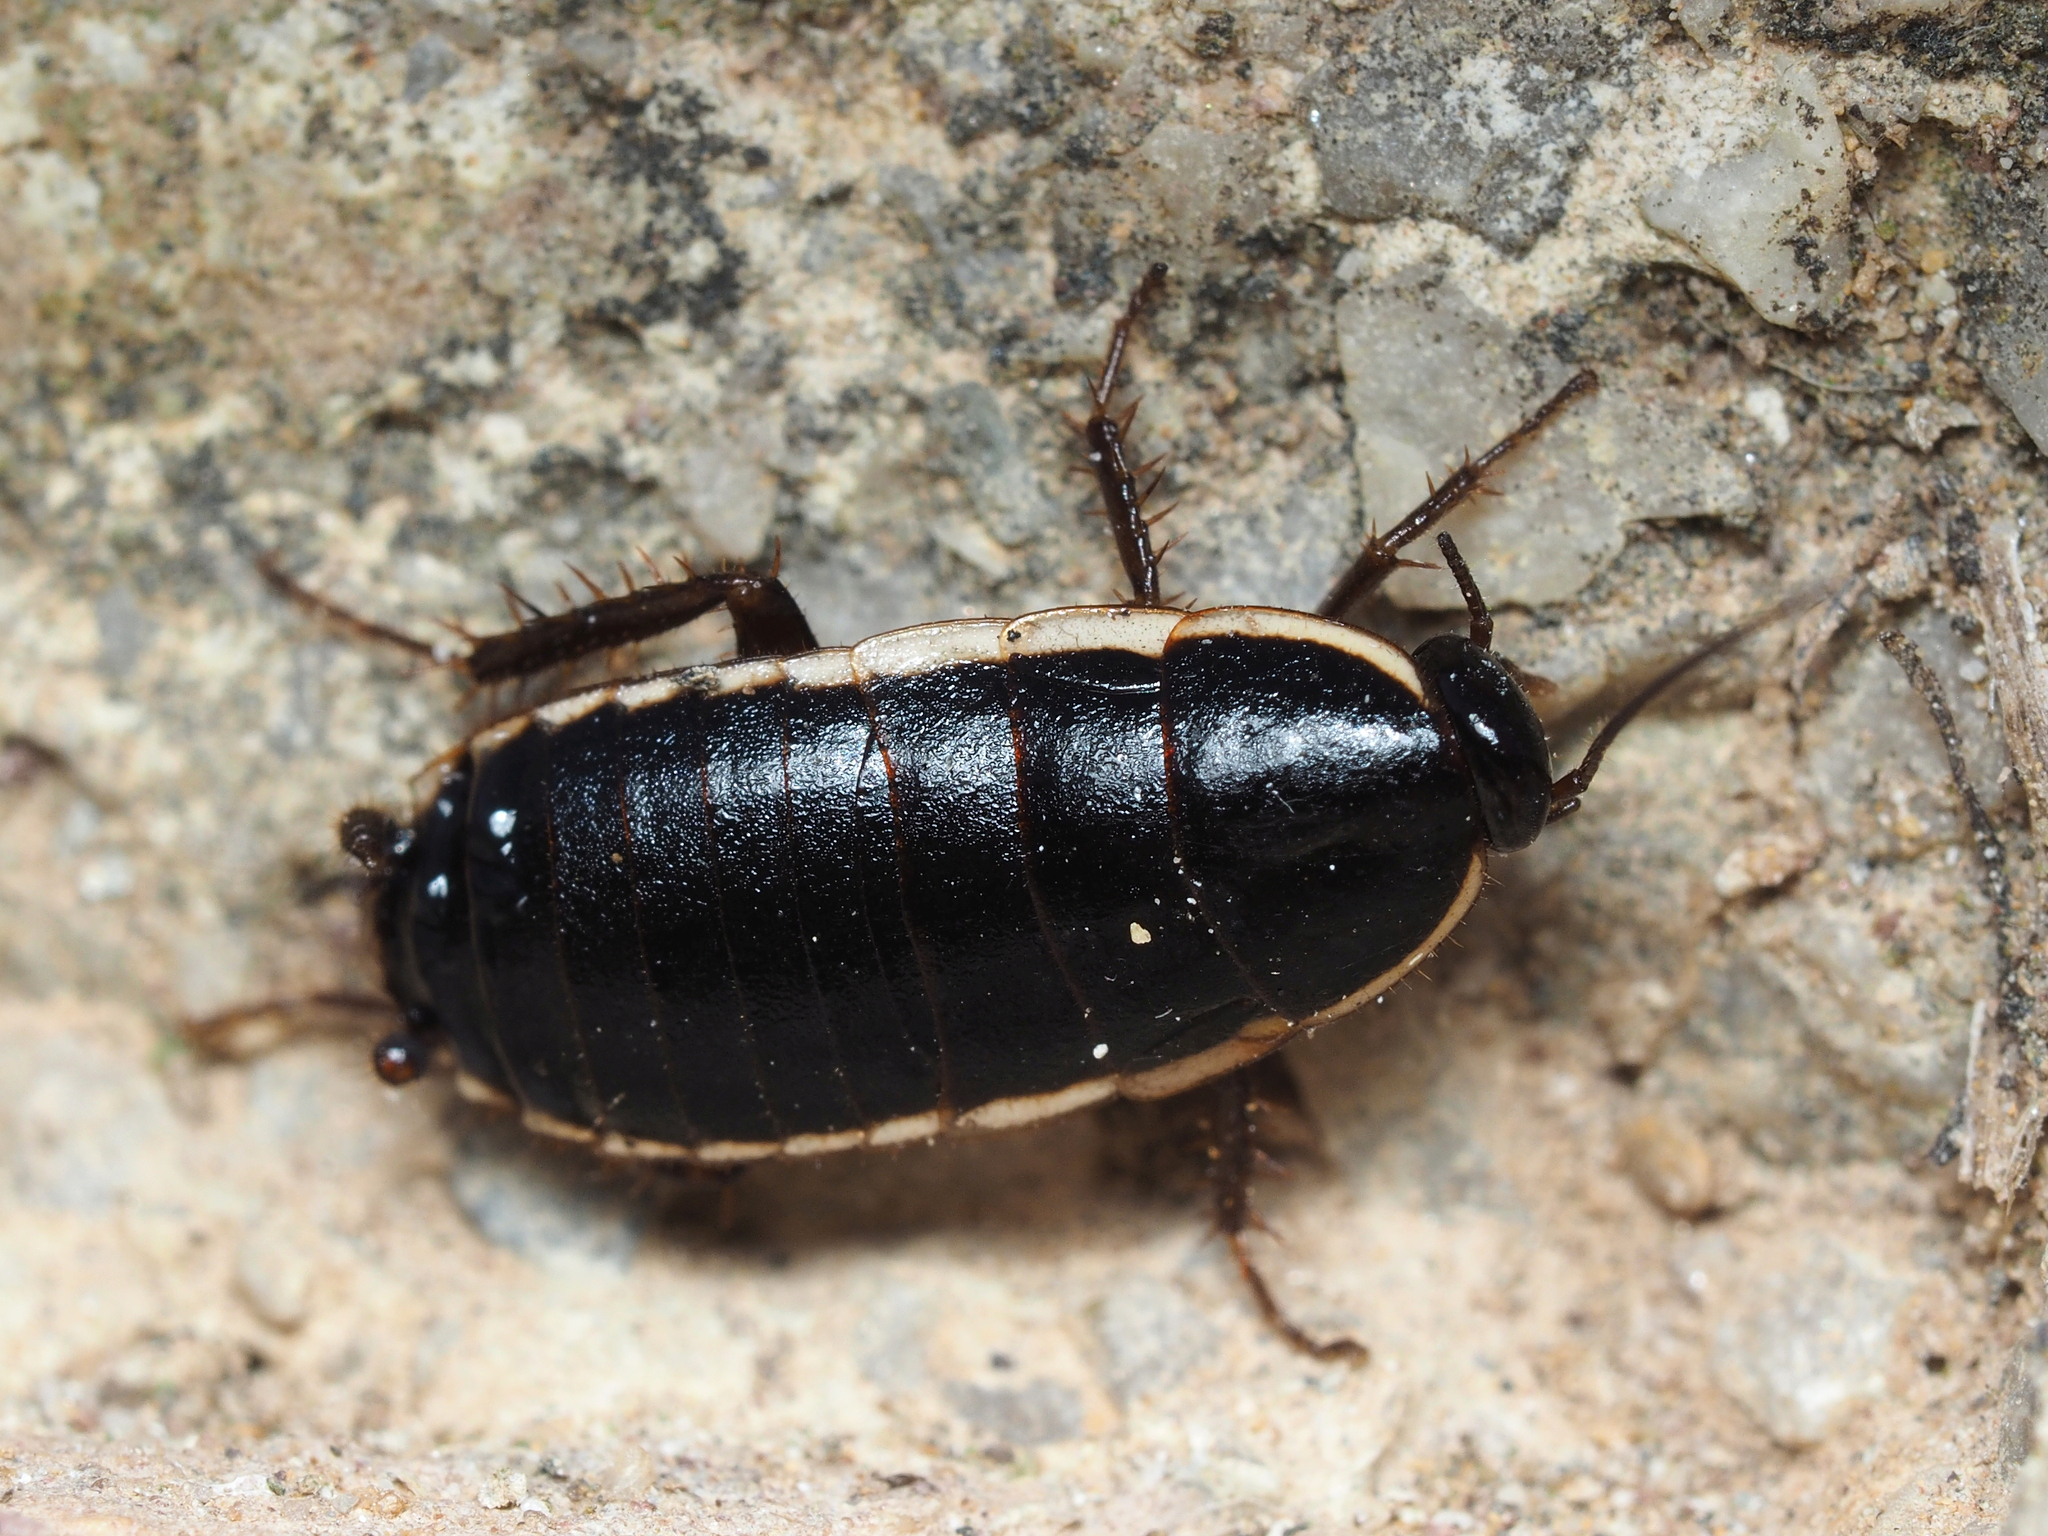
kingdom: Animalia
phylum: Arthropoda
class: Insecta
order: Blattodea
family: Ectobiidae
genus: Loboptera
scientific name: Loboptera decipiens
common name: Lobe-winged cockroach
